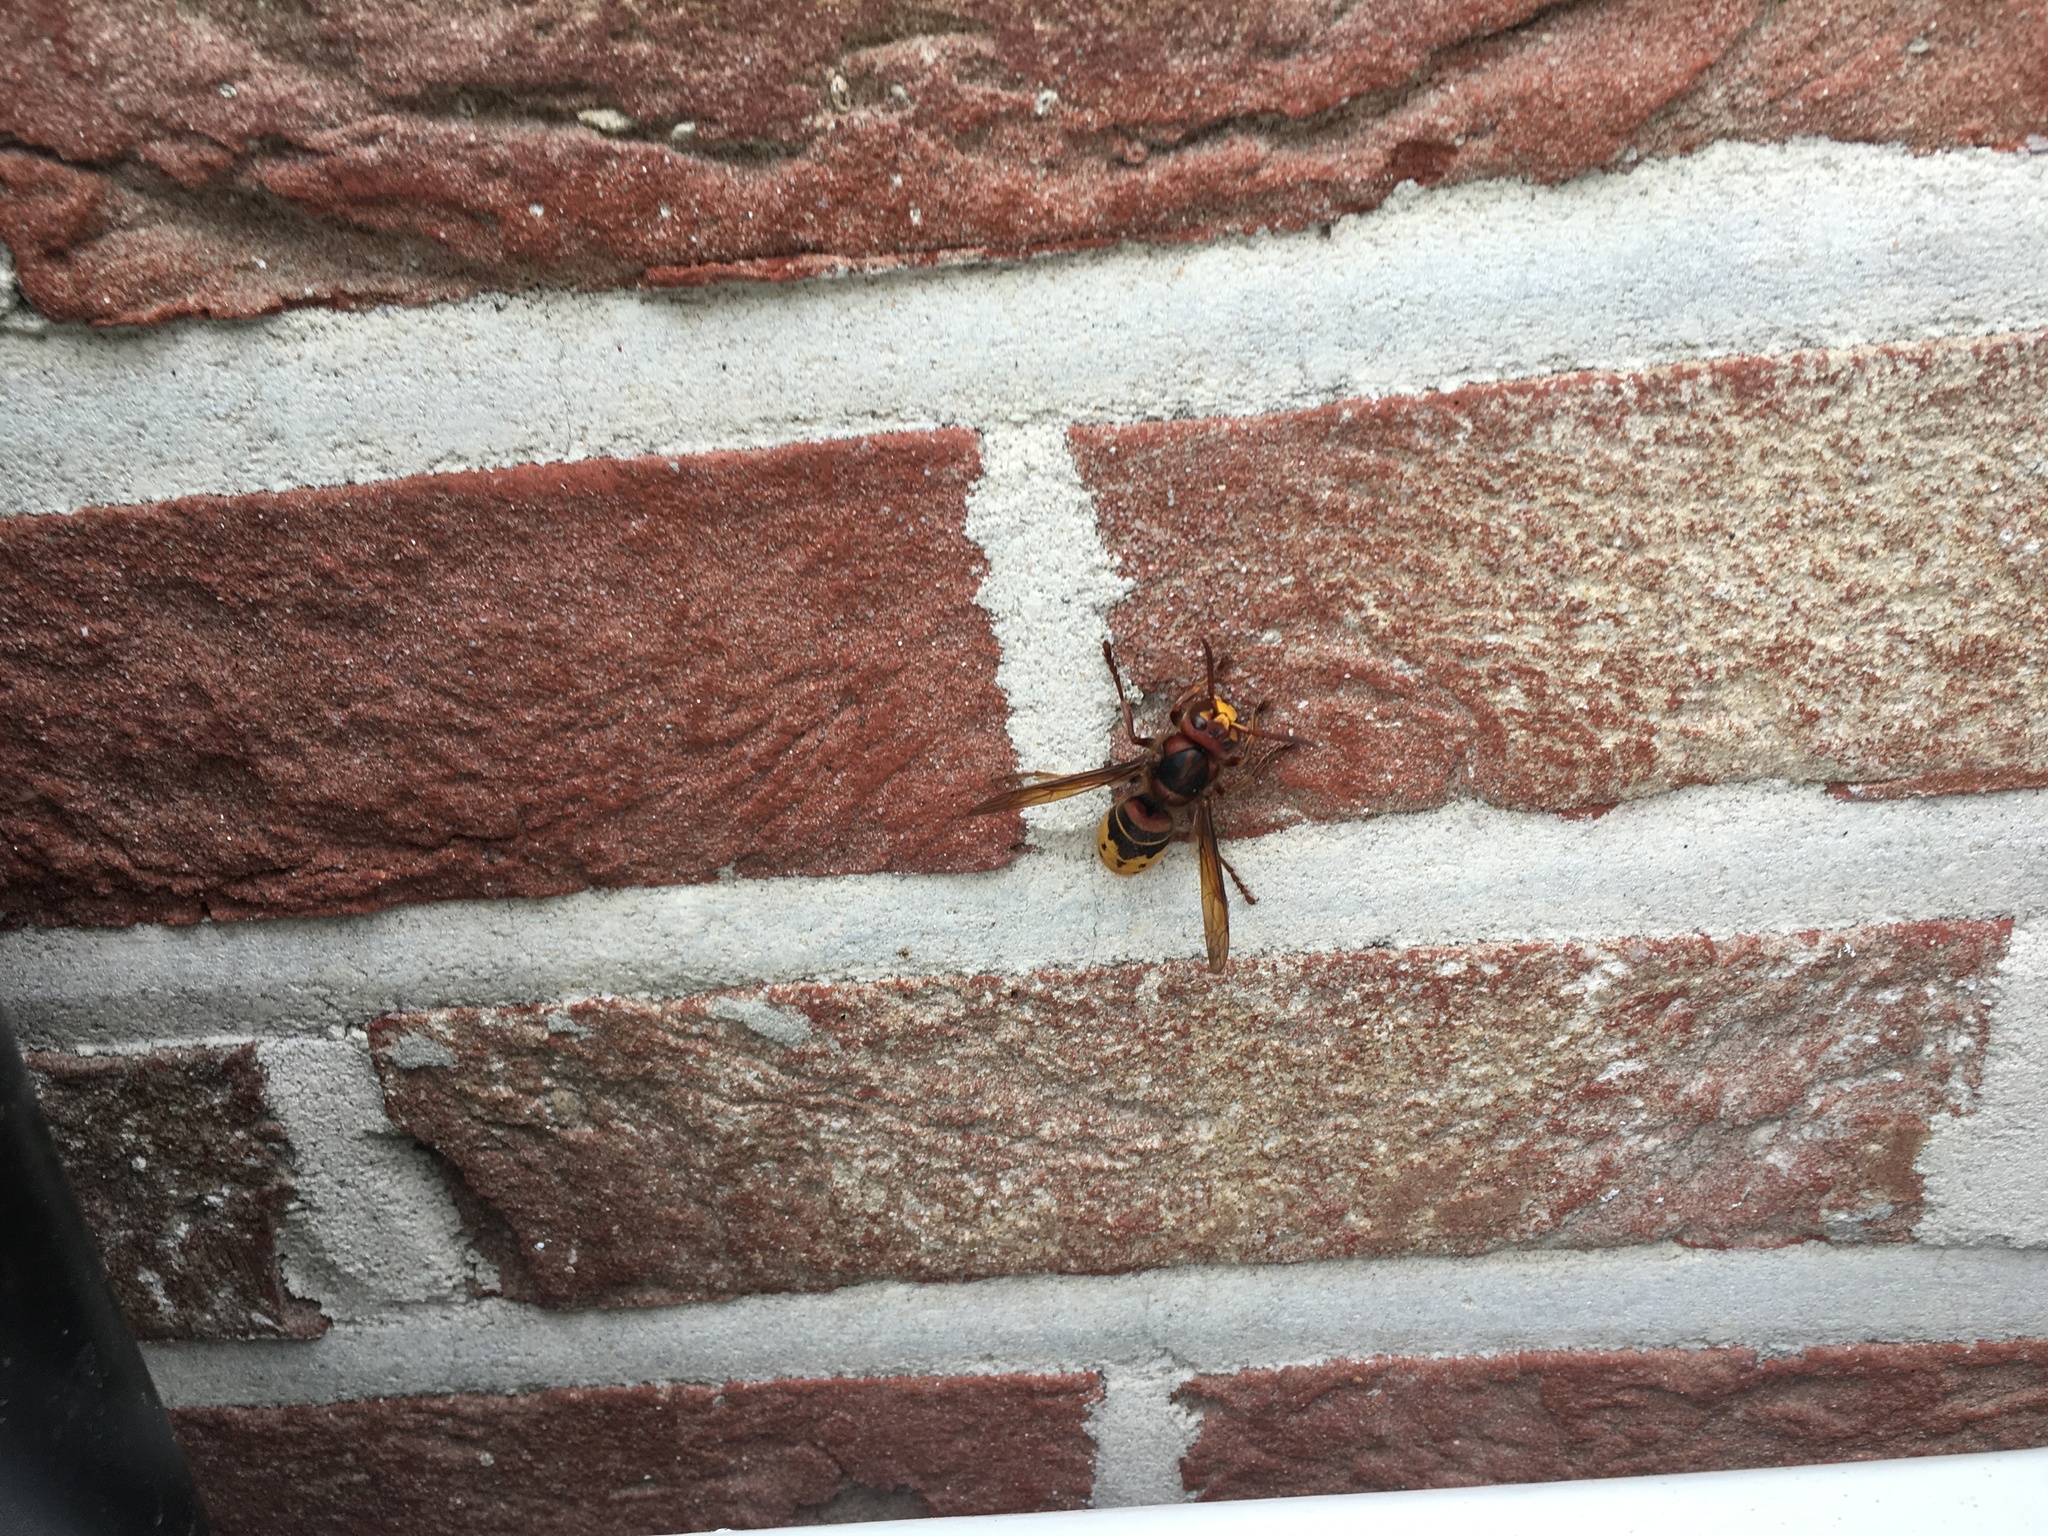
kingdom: Animalia
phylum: Arthropoda
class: Insecta
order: Hymenoptera
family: Vespidae
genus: Vespa
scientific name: Vespa crabro
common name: Hornet
